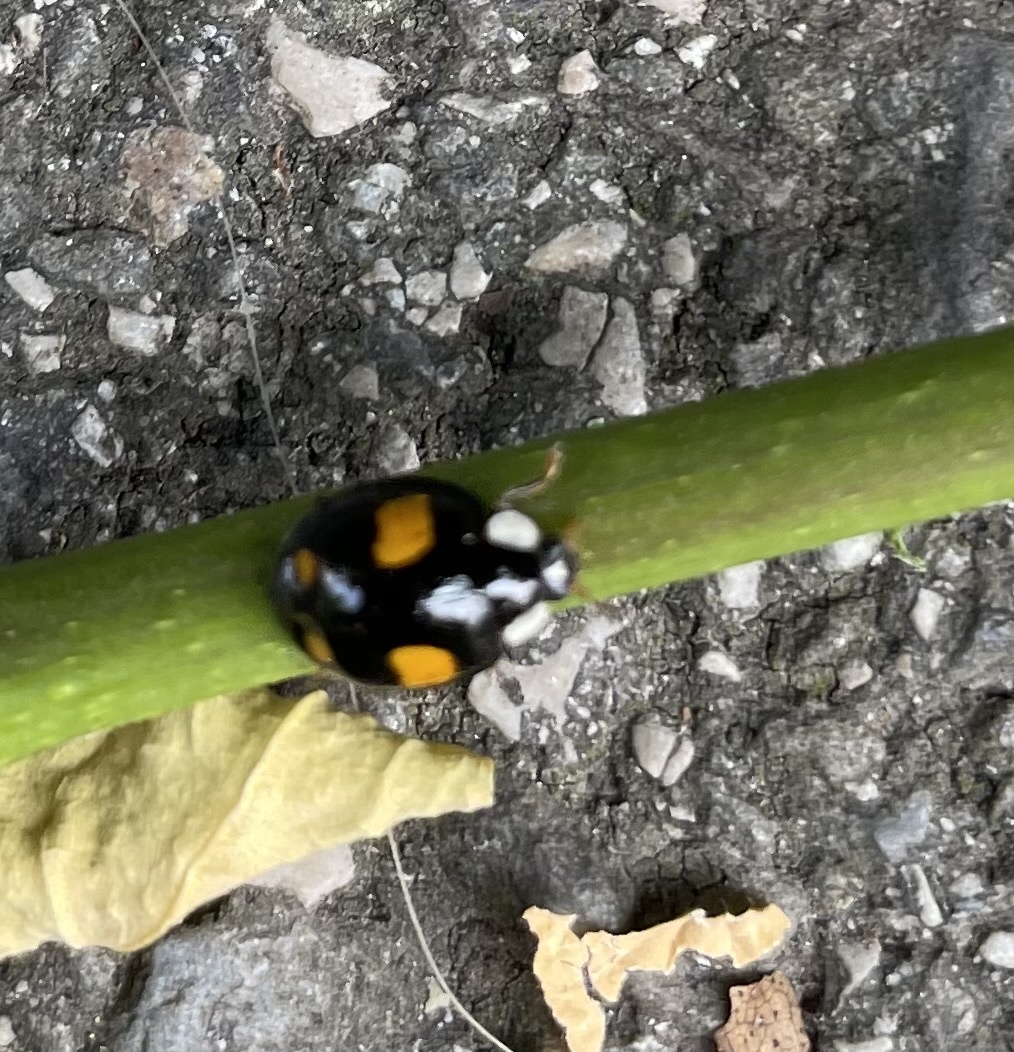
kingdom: Animalia
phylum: Arthropoda
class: Insecta
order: Coleoptera
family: Coccinellidae
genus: Harmonia
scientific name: Harmonia axyridis
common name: Harlequin ladybird
